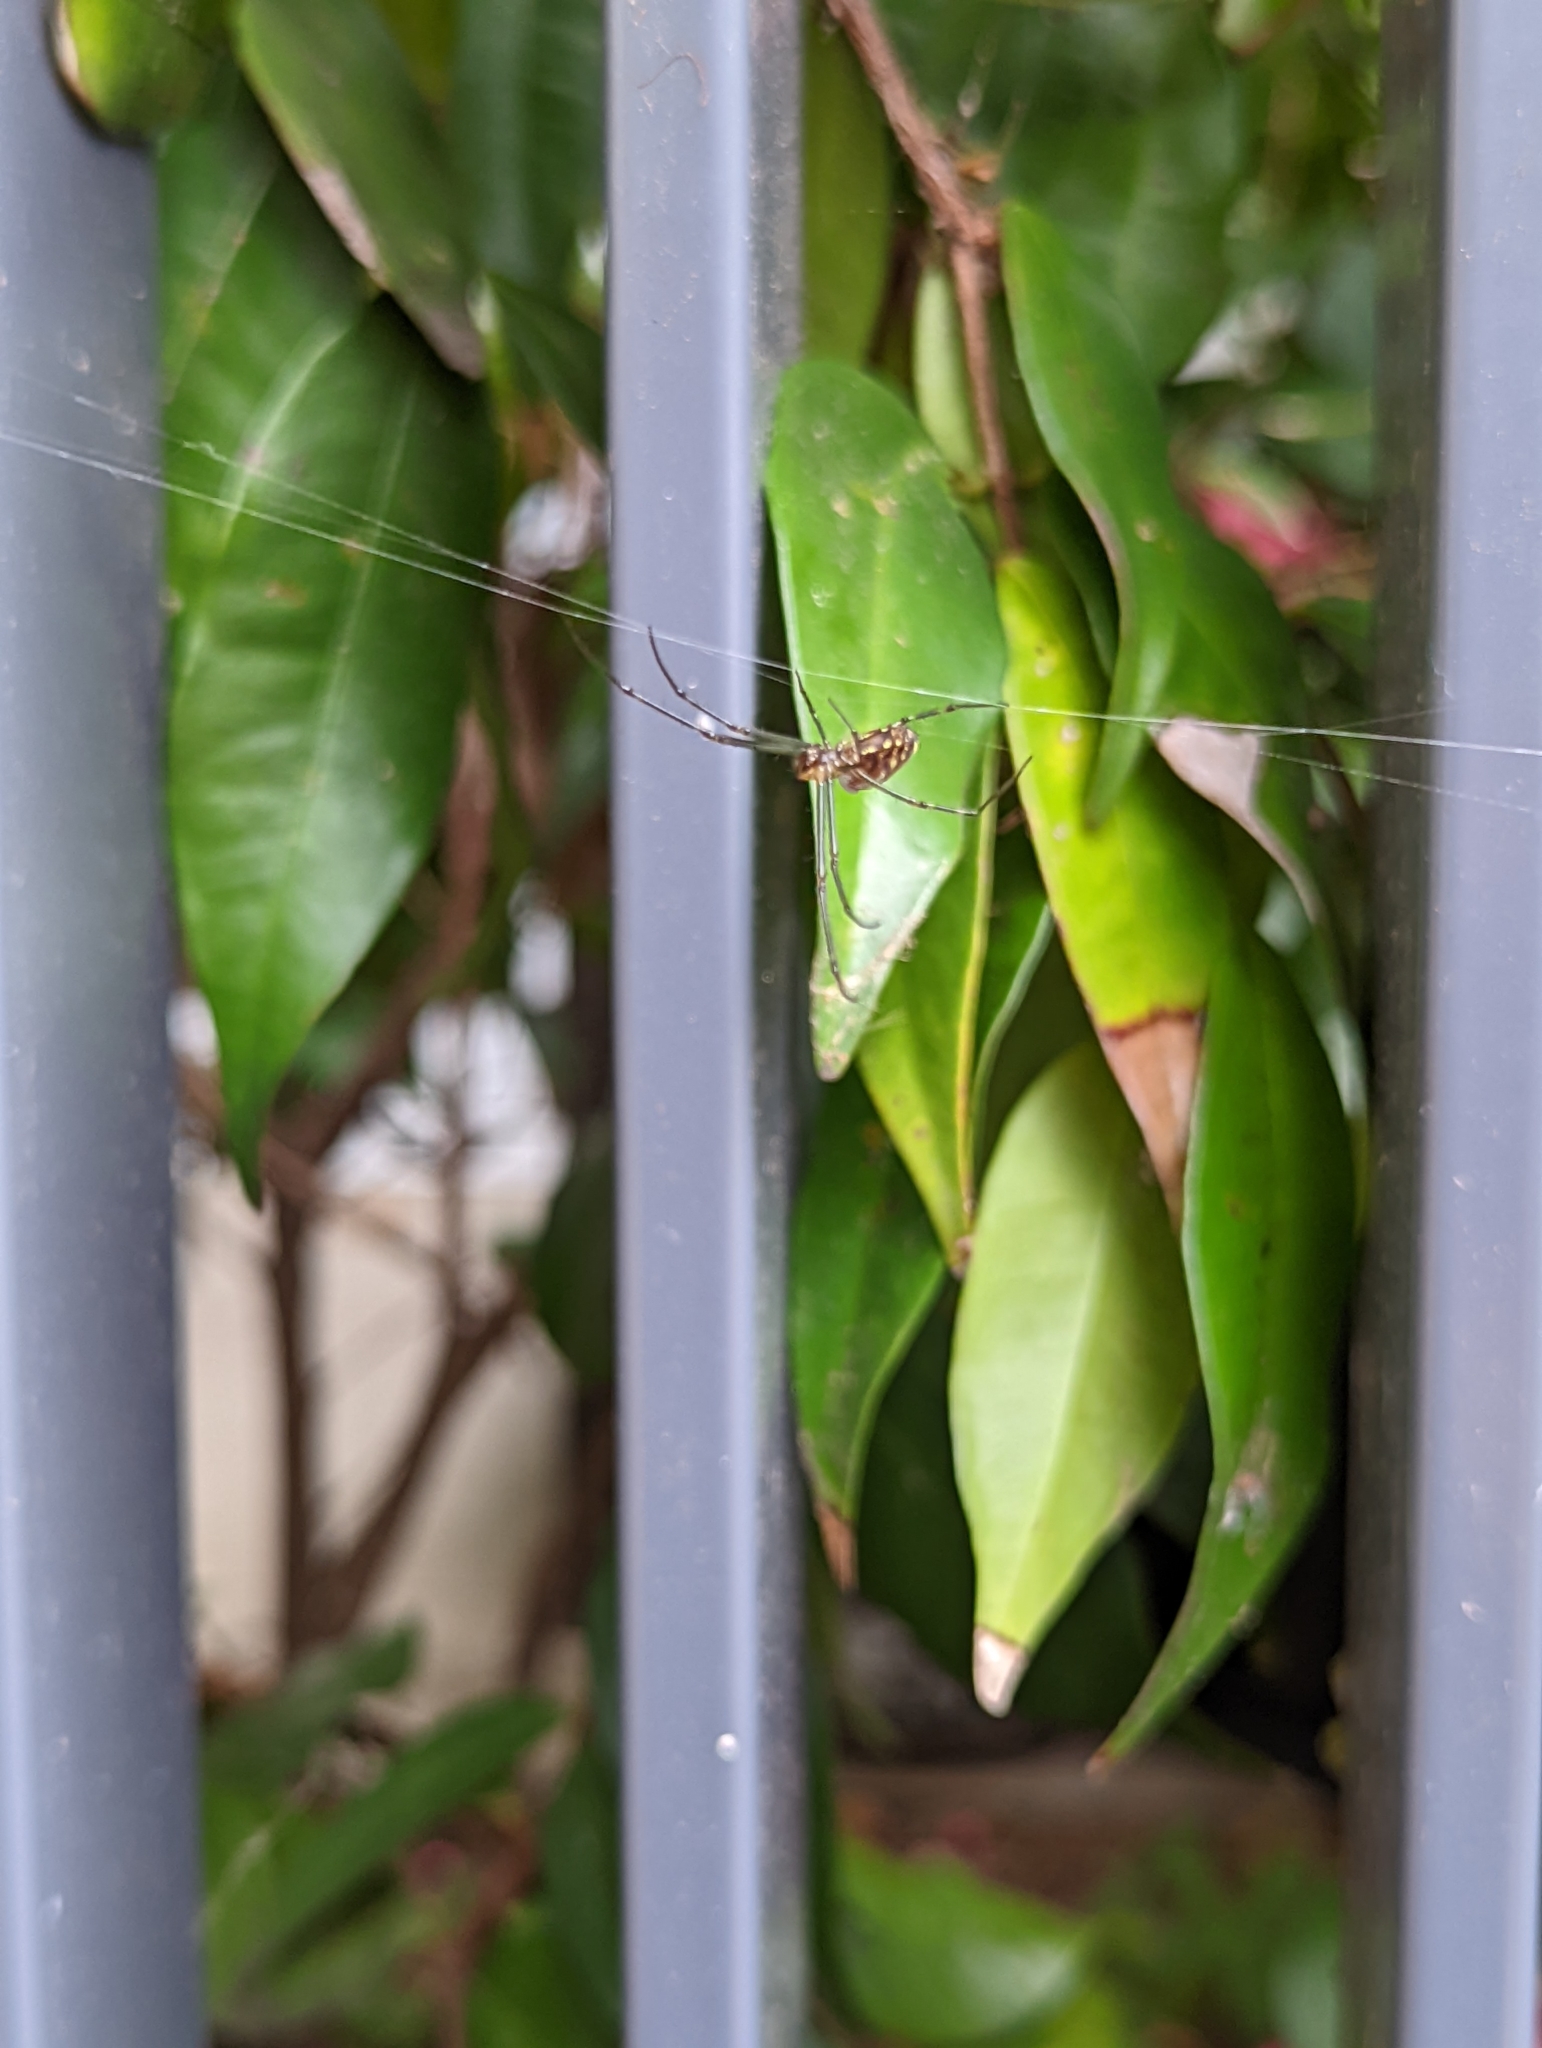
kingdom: Animalia
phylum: Arthropoda
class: Arachnida
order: Araneae
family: Tetragnathidae
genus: Leucauge
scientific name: Leucauge dromedaria
